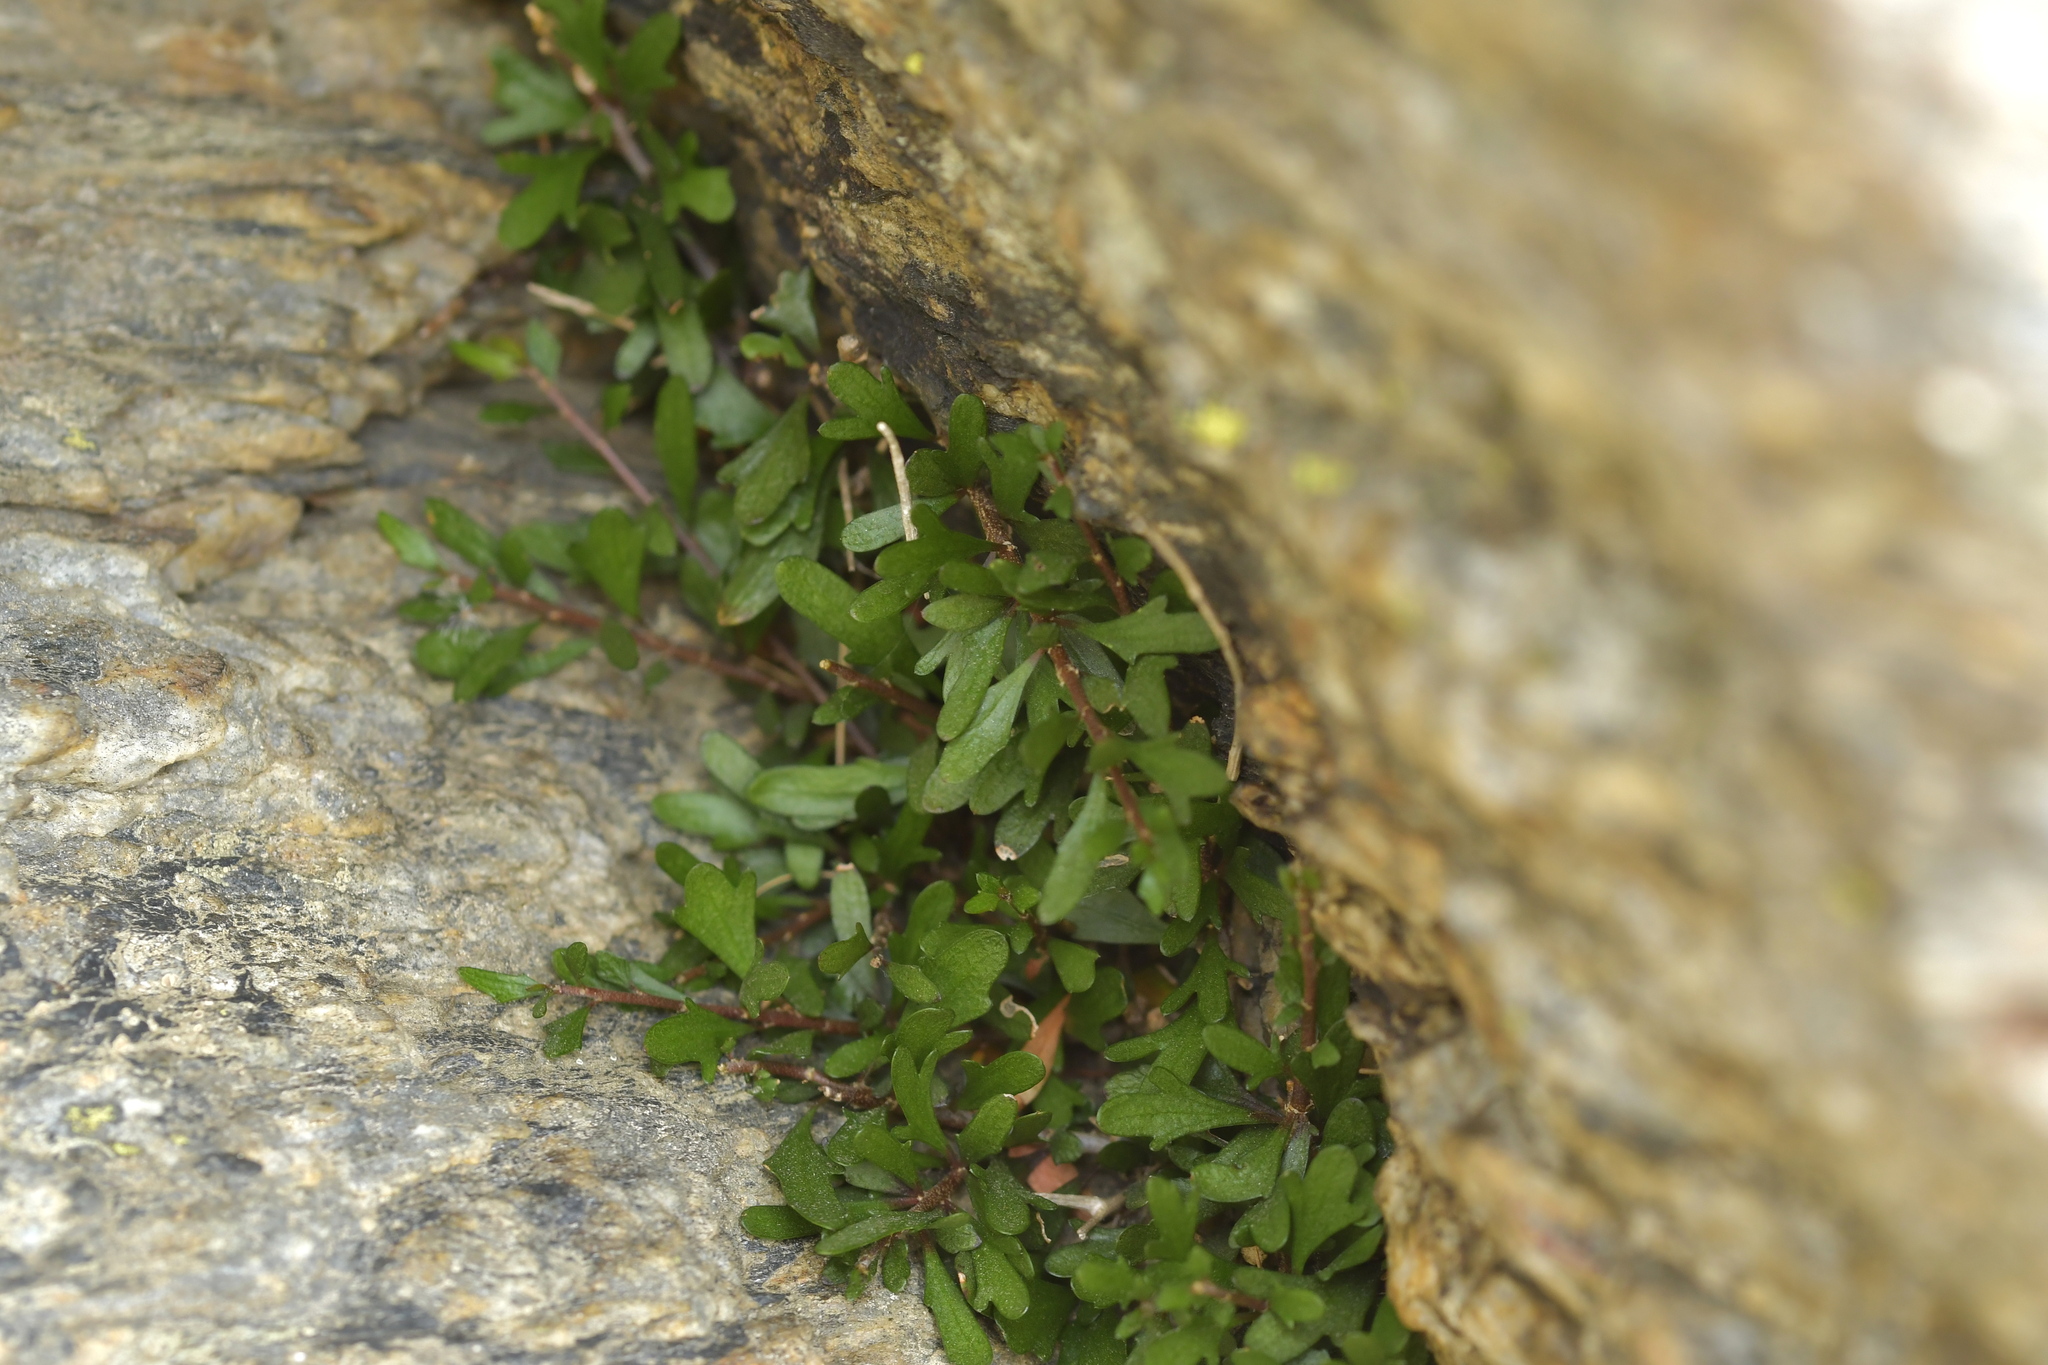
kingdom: Plantae
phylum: Tracheophyta
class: Magnoliopsida
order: Malpighiales
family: Violaceae
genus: Melicytus
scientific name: Melicytus alpinus
